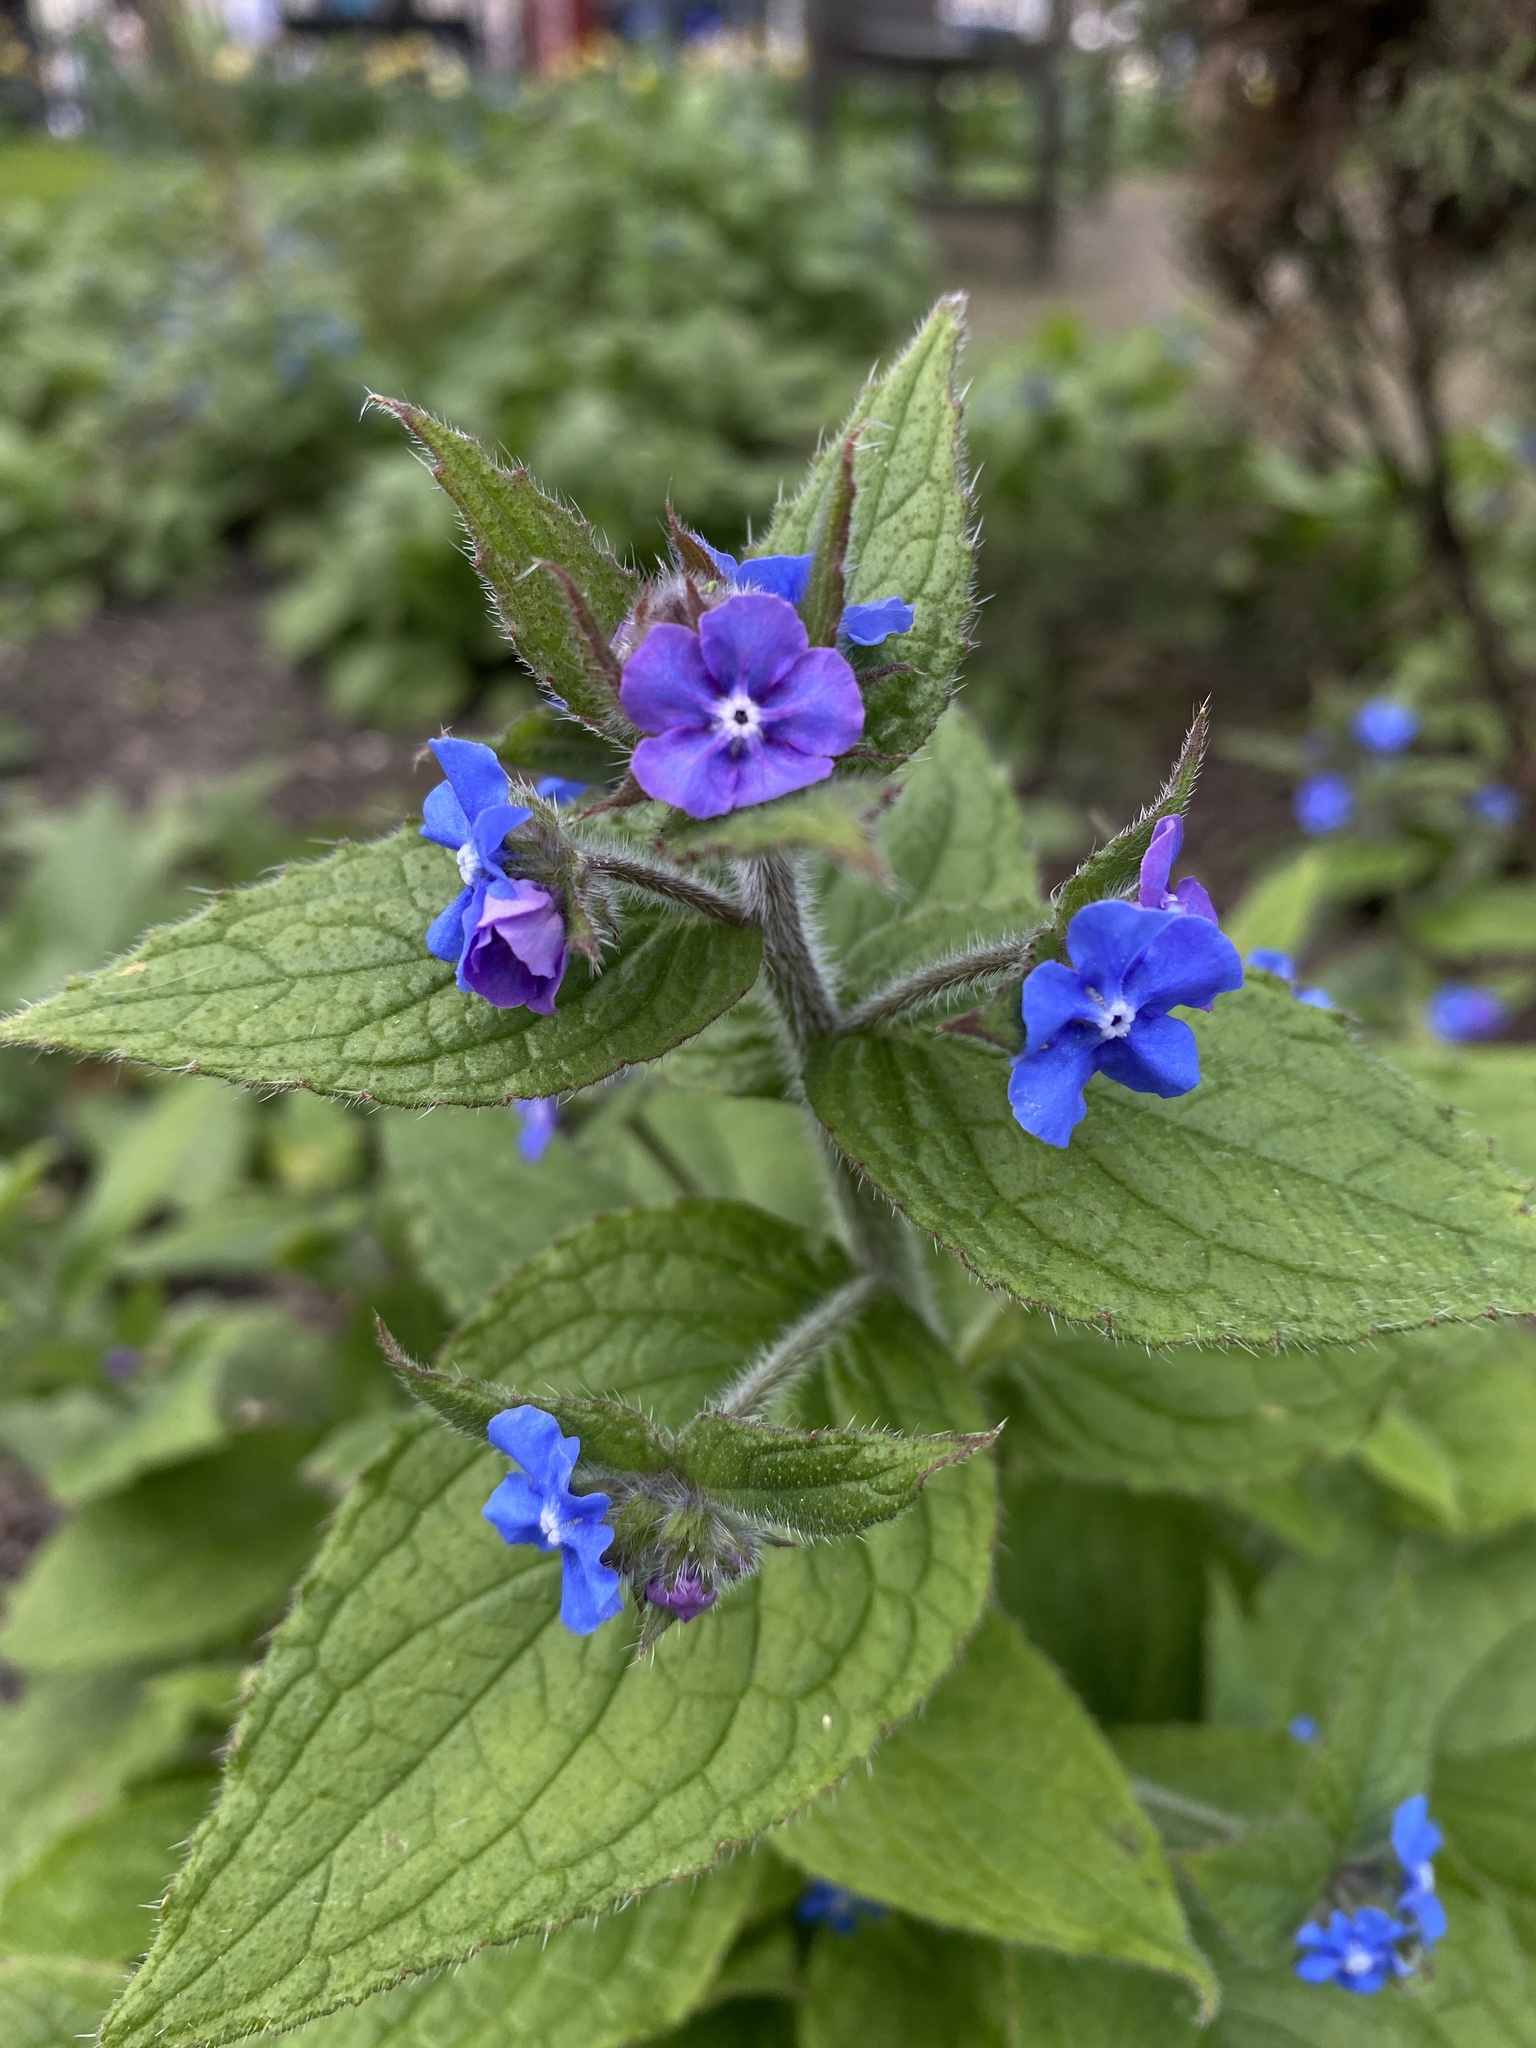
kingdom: Plantae
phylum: Tracheophyta
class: Magnoliopsida
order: Boraginales
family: Boraginaceae
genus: Pentaglottis
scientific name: Pentaglottis sempervirens
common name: Green alkanet
